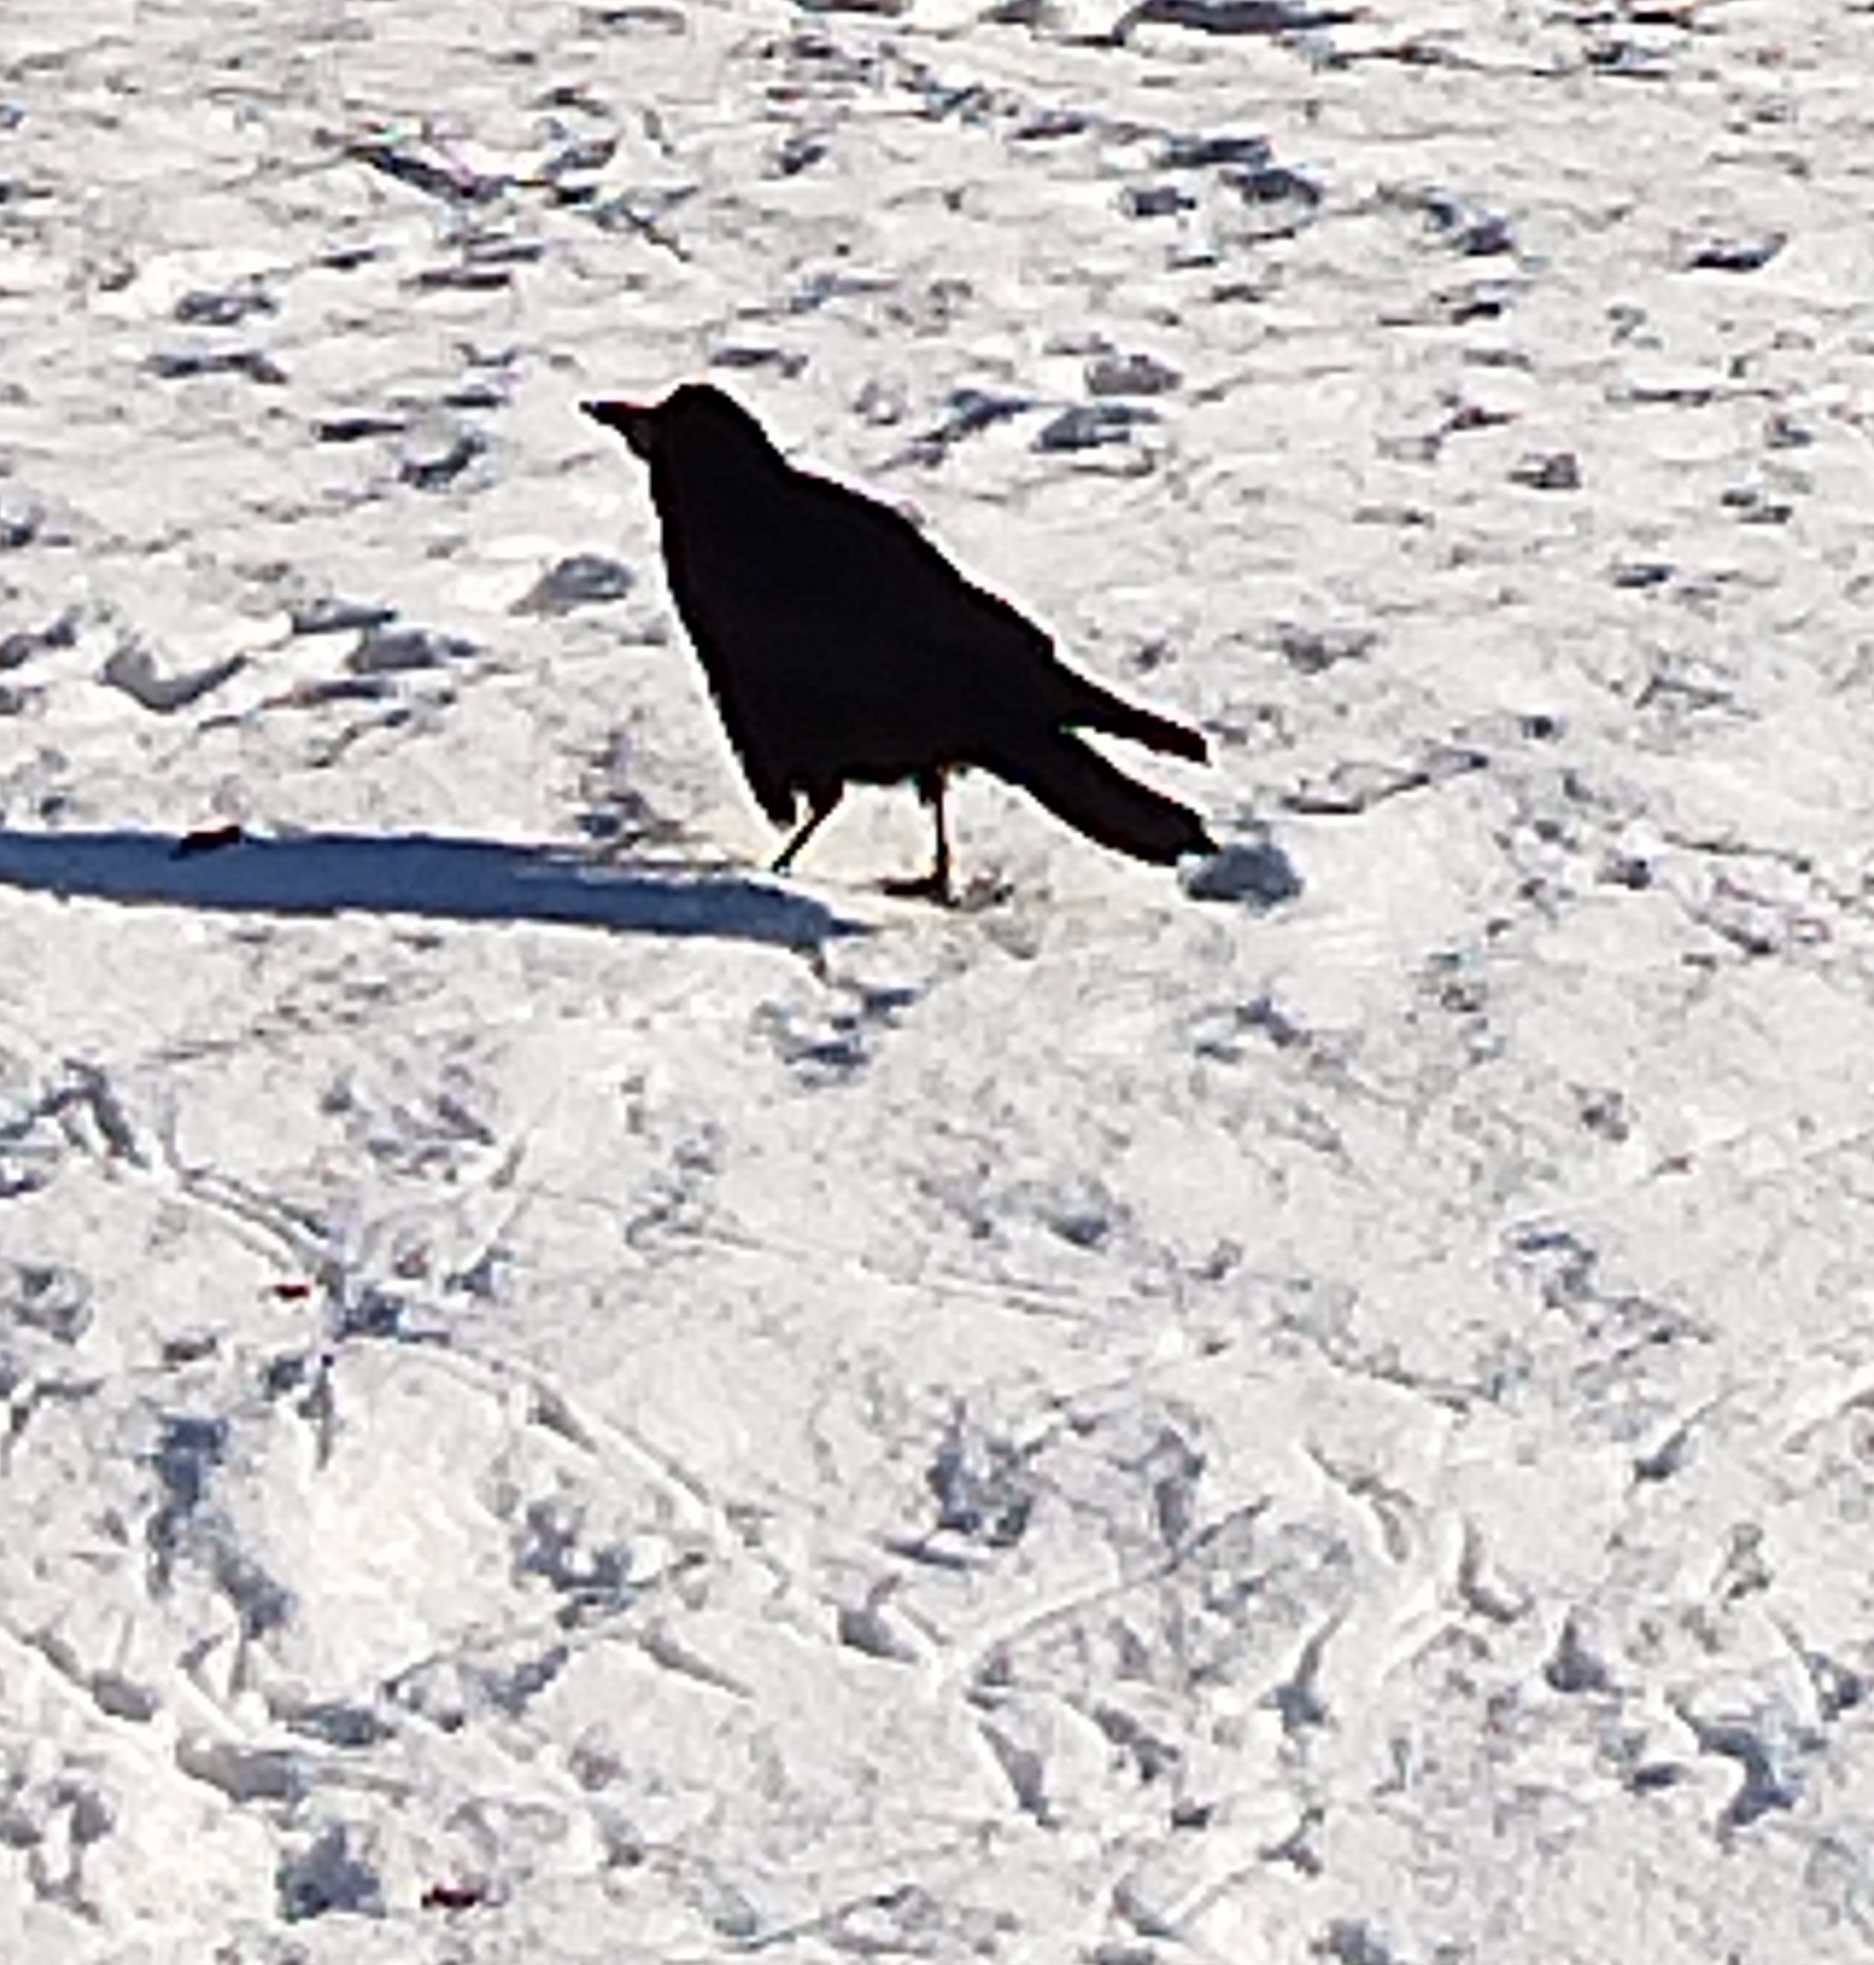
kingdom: Animalia
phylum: Chordata
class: Aves
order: Passeriformes
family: Corvidae
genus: Corvus
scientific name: Corvus frugilegus
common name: Rook
